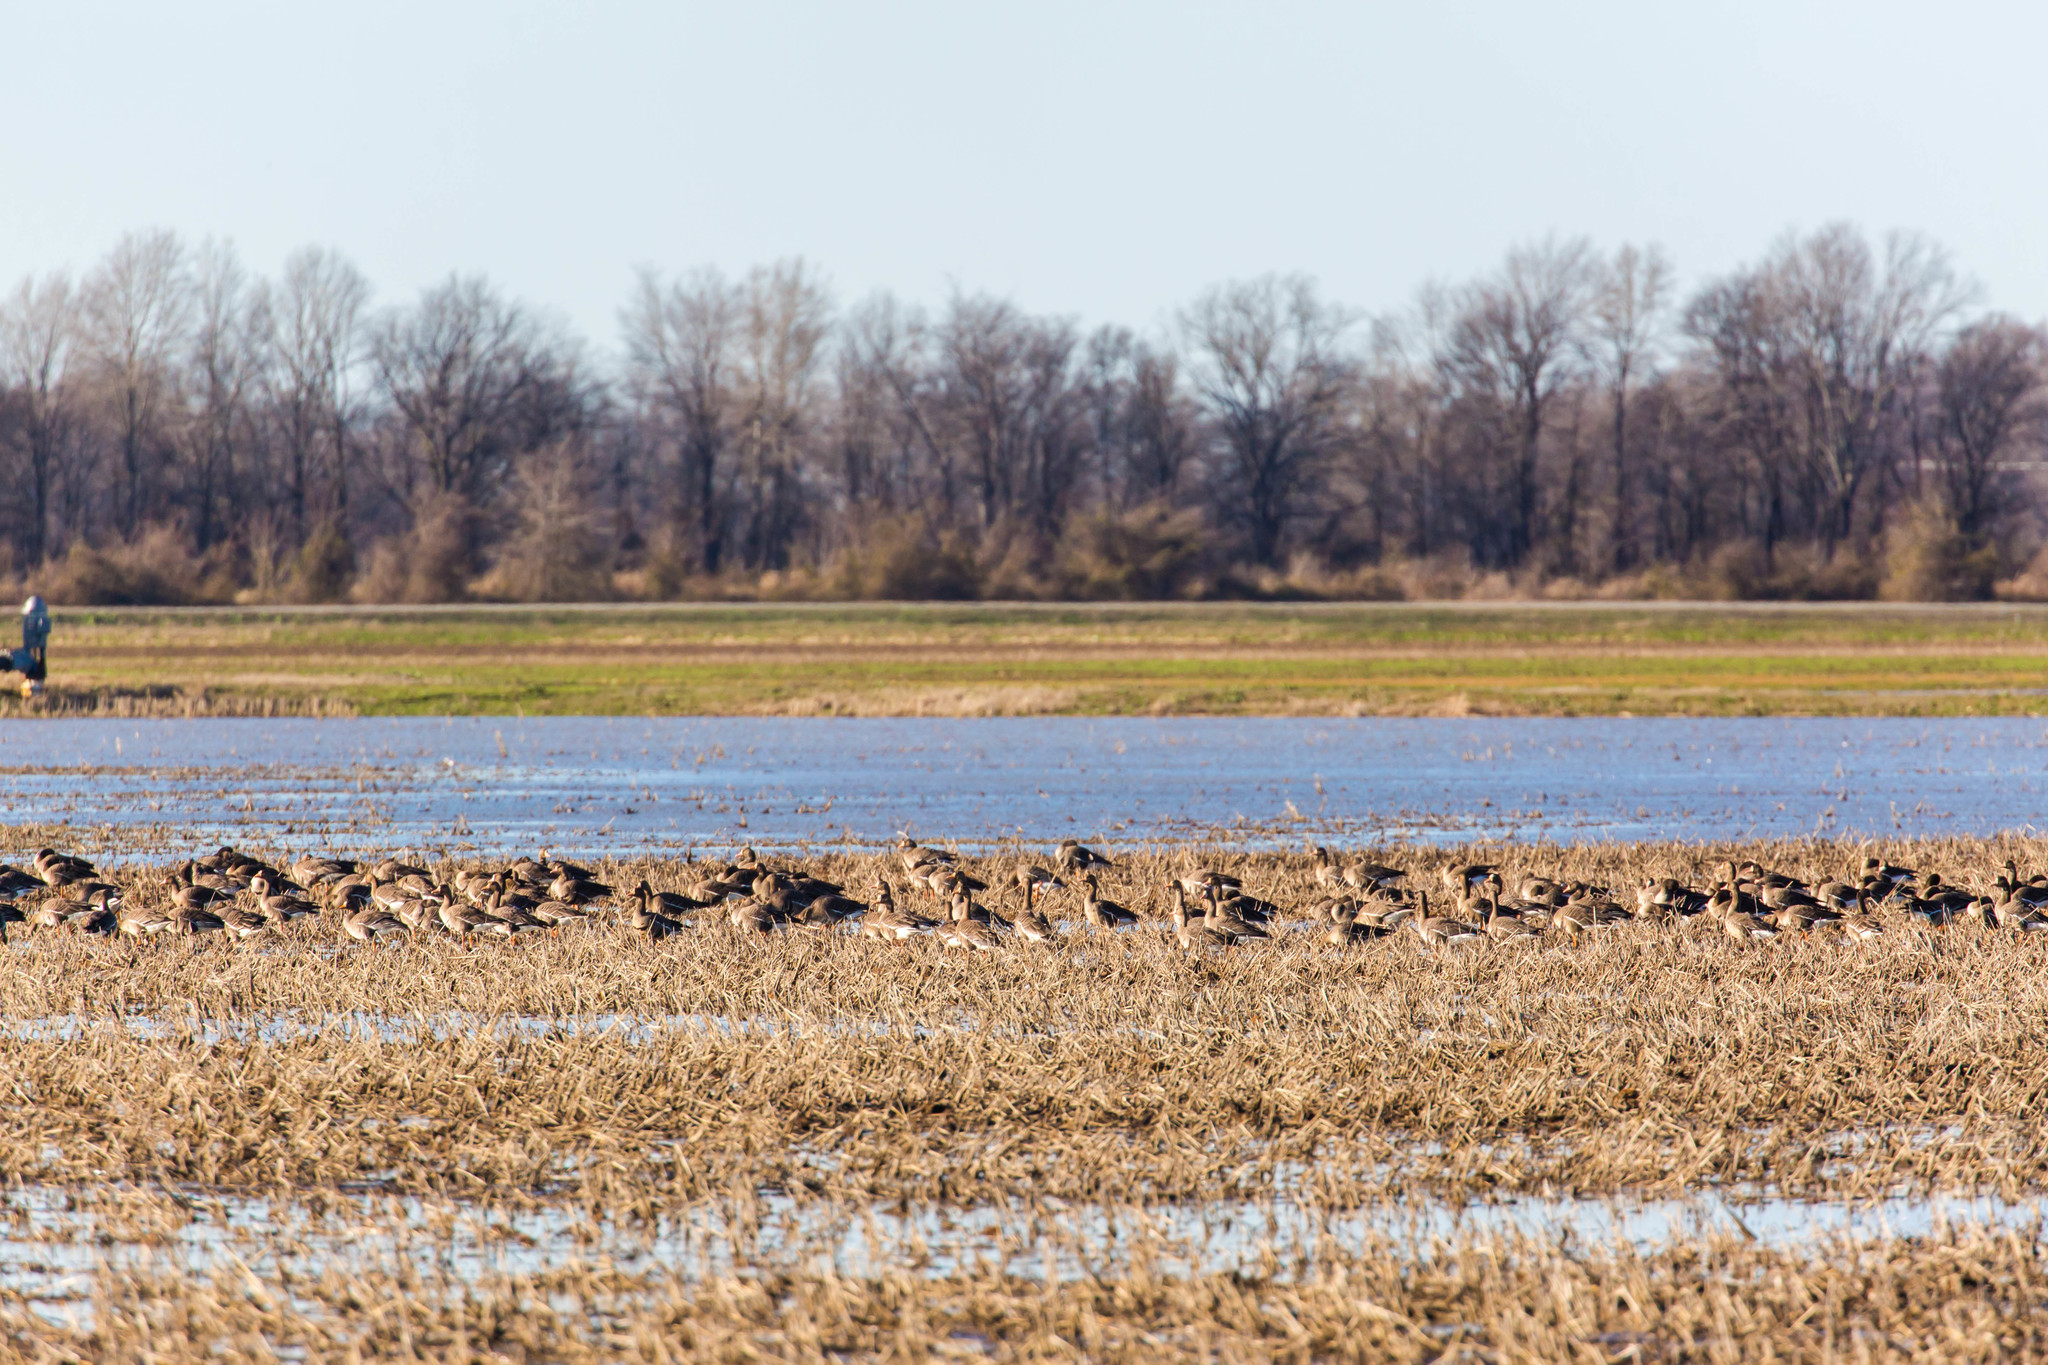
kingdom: Animalia
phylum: Chordata
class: Aves
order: Anseriformes
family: Anatidae
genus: Anser
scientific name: Anser albifrons
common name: Greater white-fronted goose
